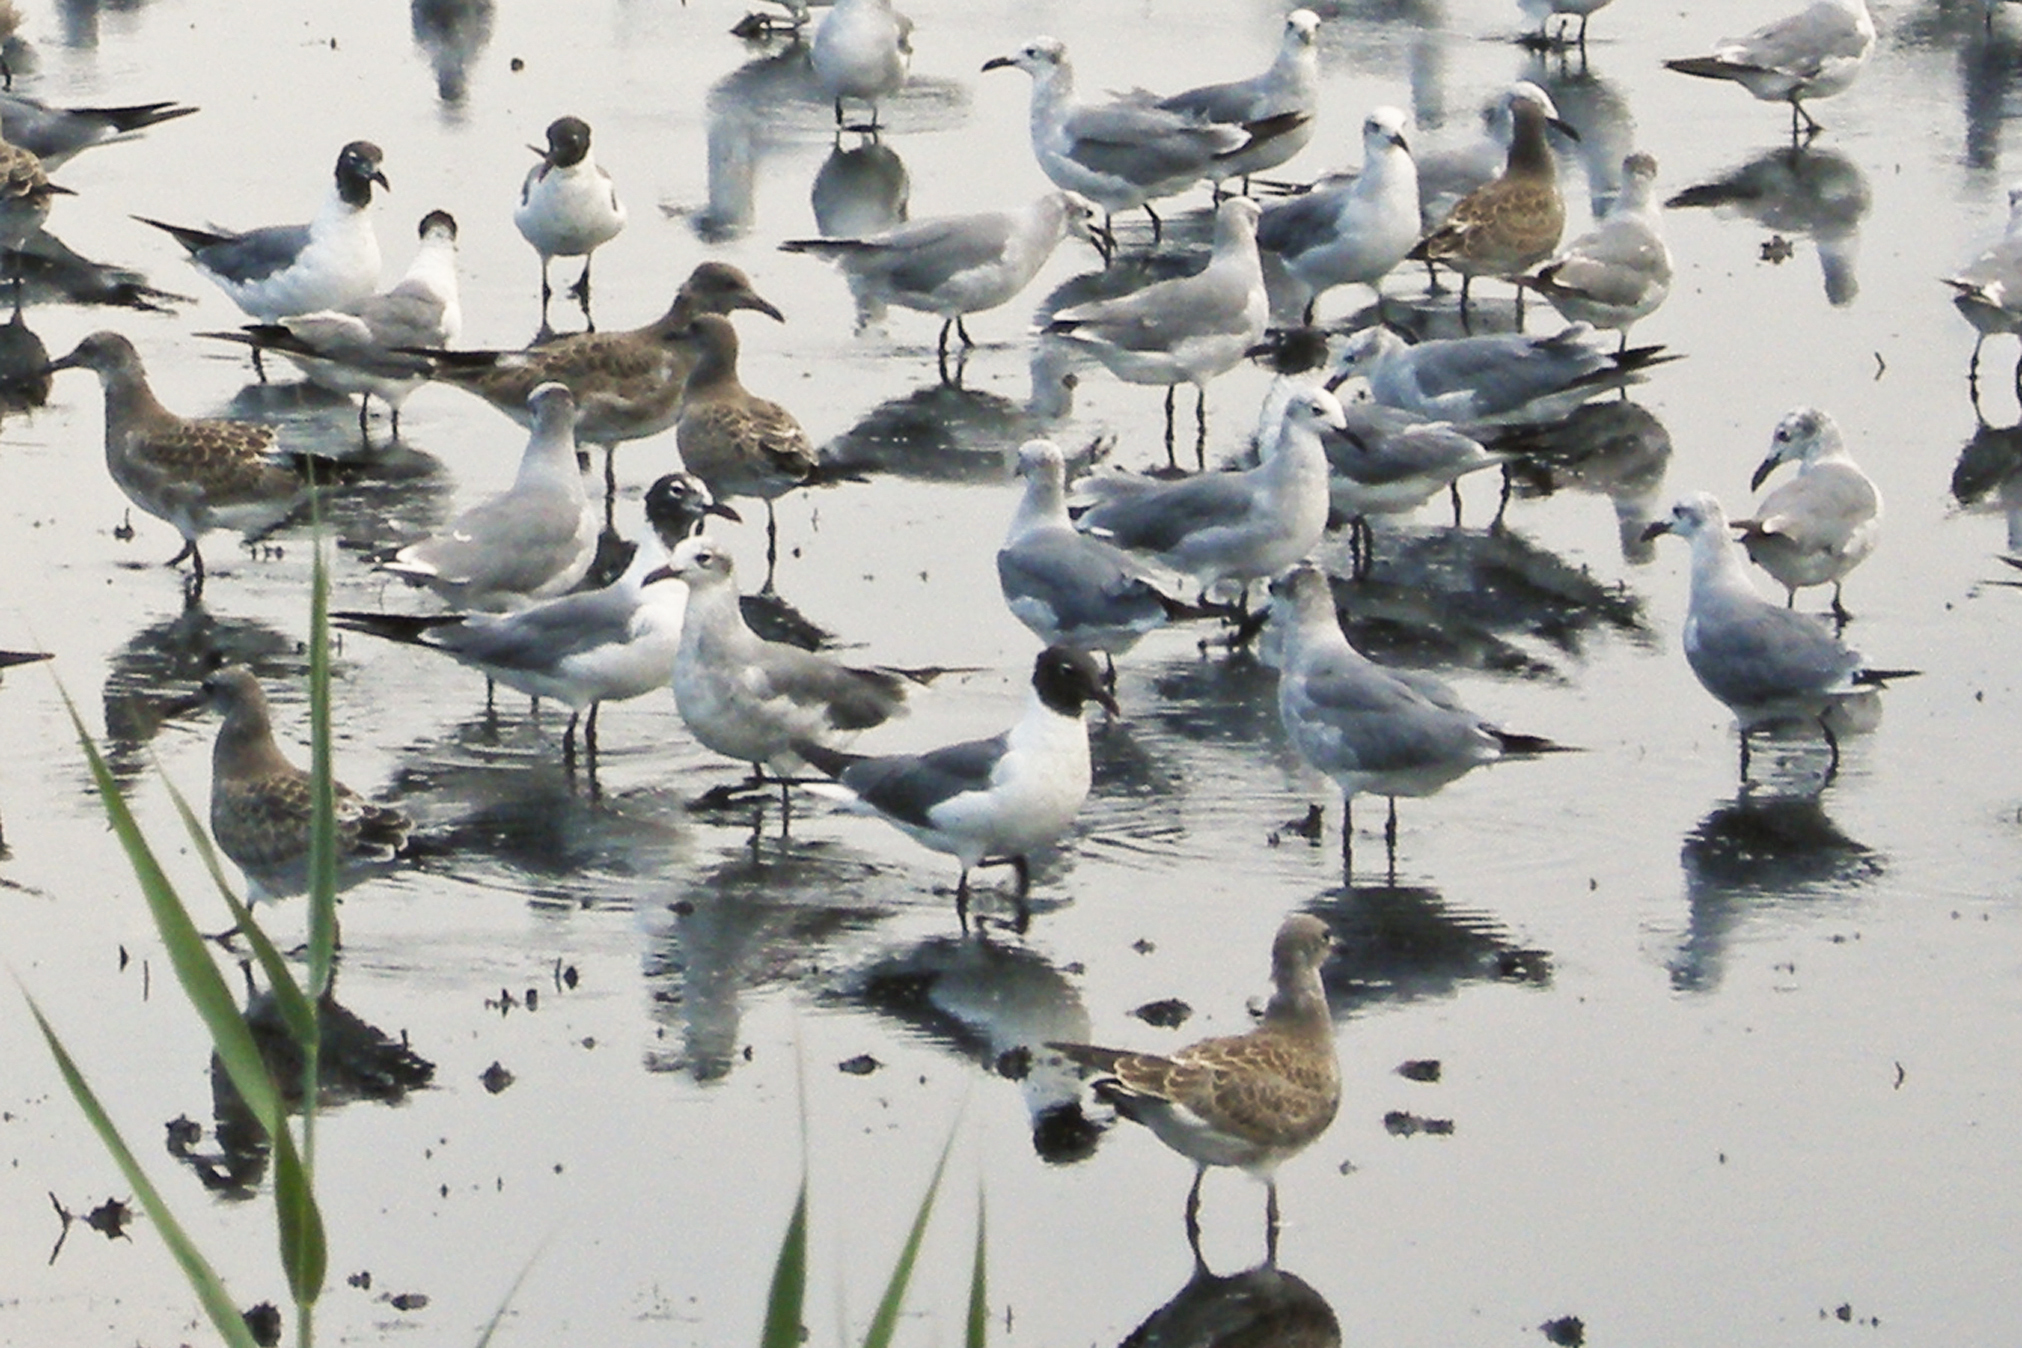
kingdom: Animalia
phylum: Chordata
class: Aves
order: Charadriiformes
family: Laridae
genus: Leucophaeus
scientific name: Leucophaeus atricilla
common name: Laughing gull
